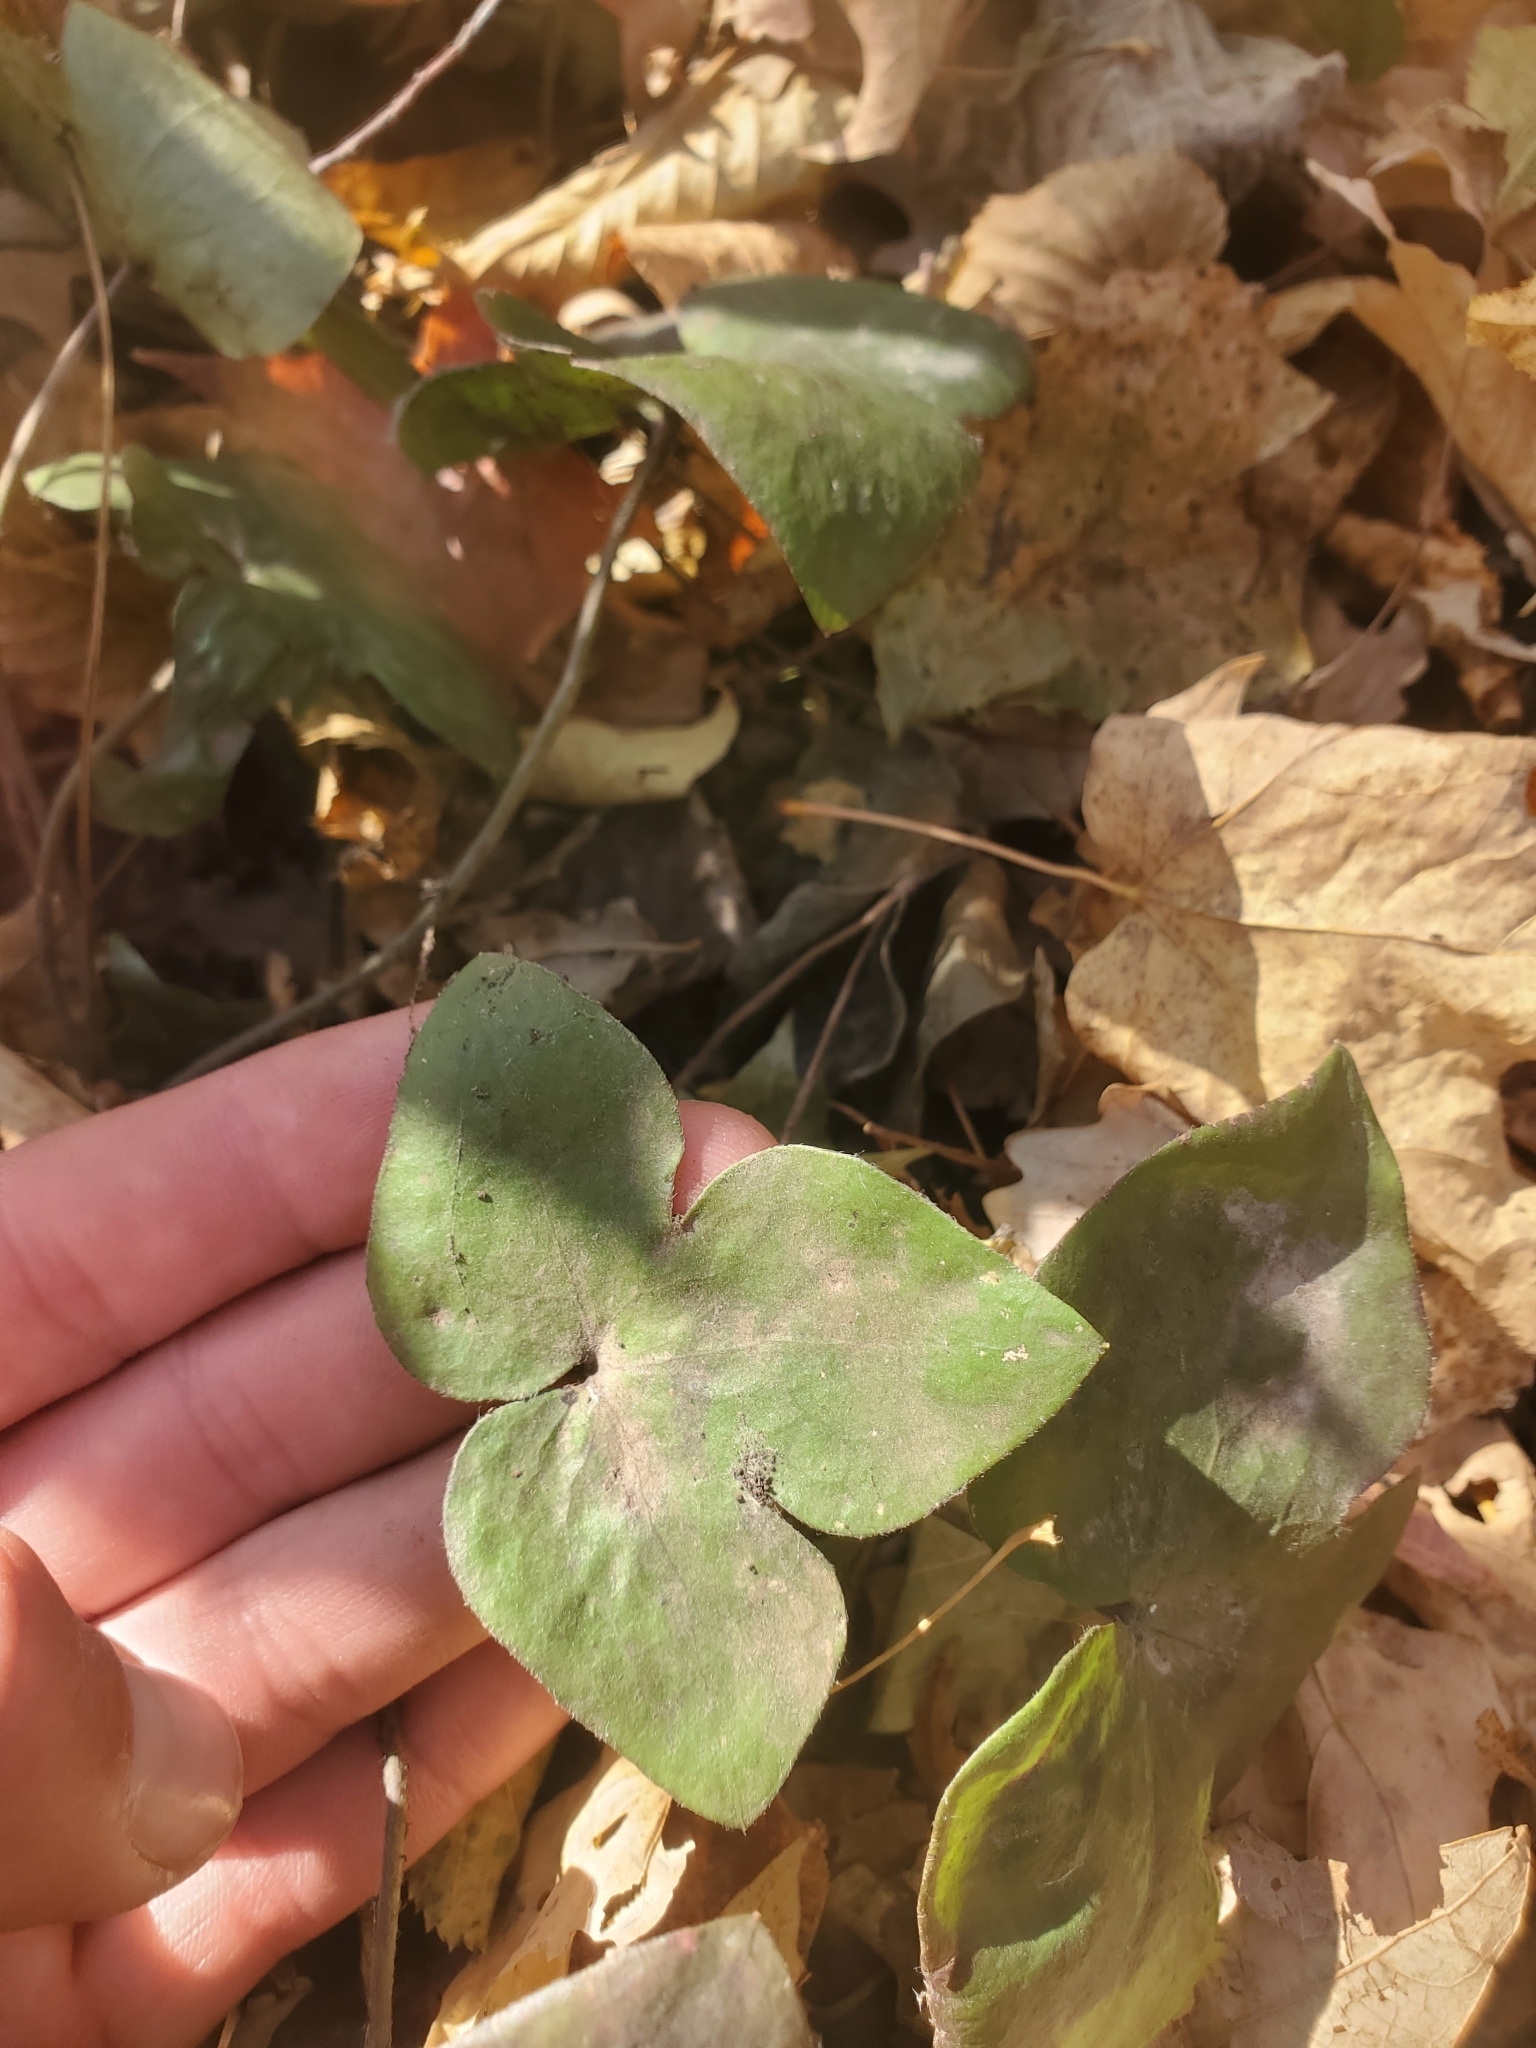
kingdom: Plantae
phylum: Tracheophyta
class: Magnoliopsida
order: Ranunculales
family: Ranunculaceae
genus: Hepatica
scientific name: Hepatica acutiloba
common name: Sharp-lobed hepatica
